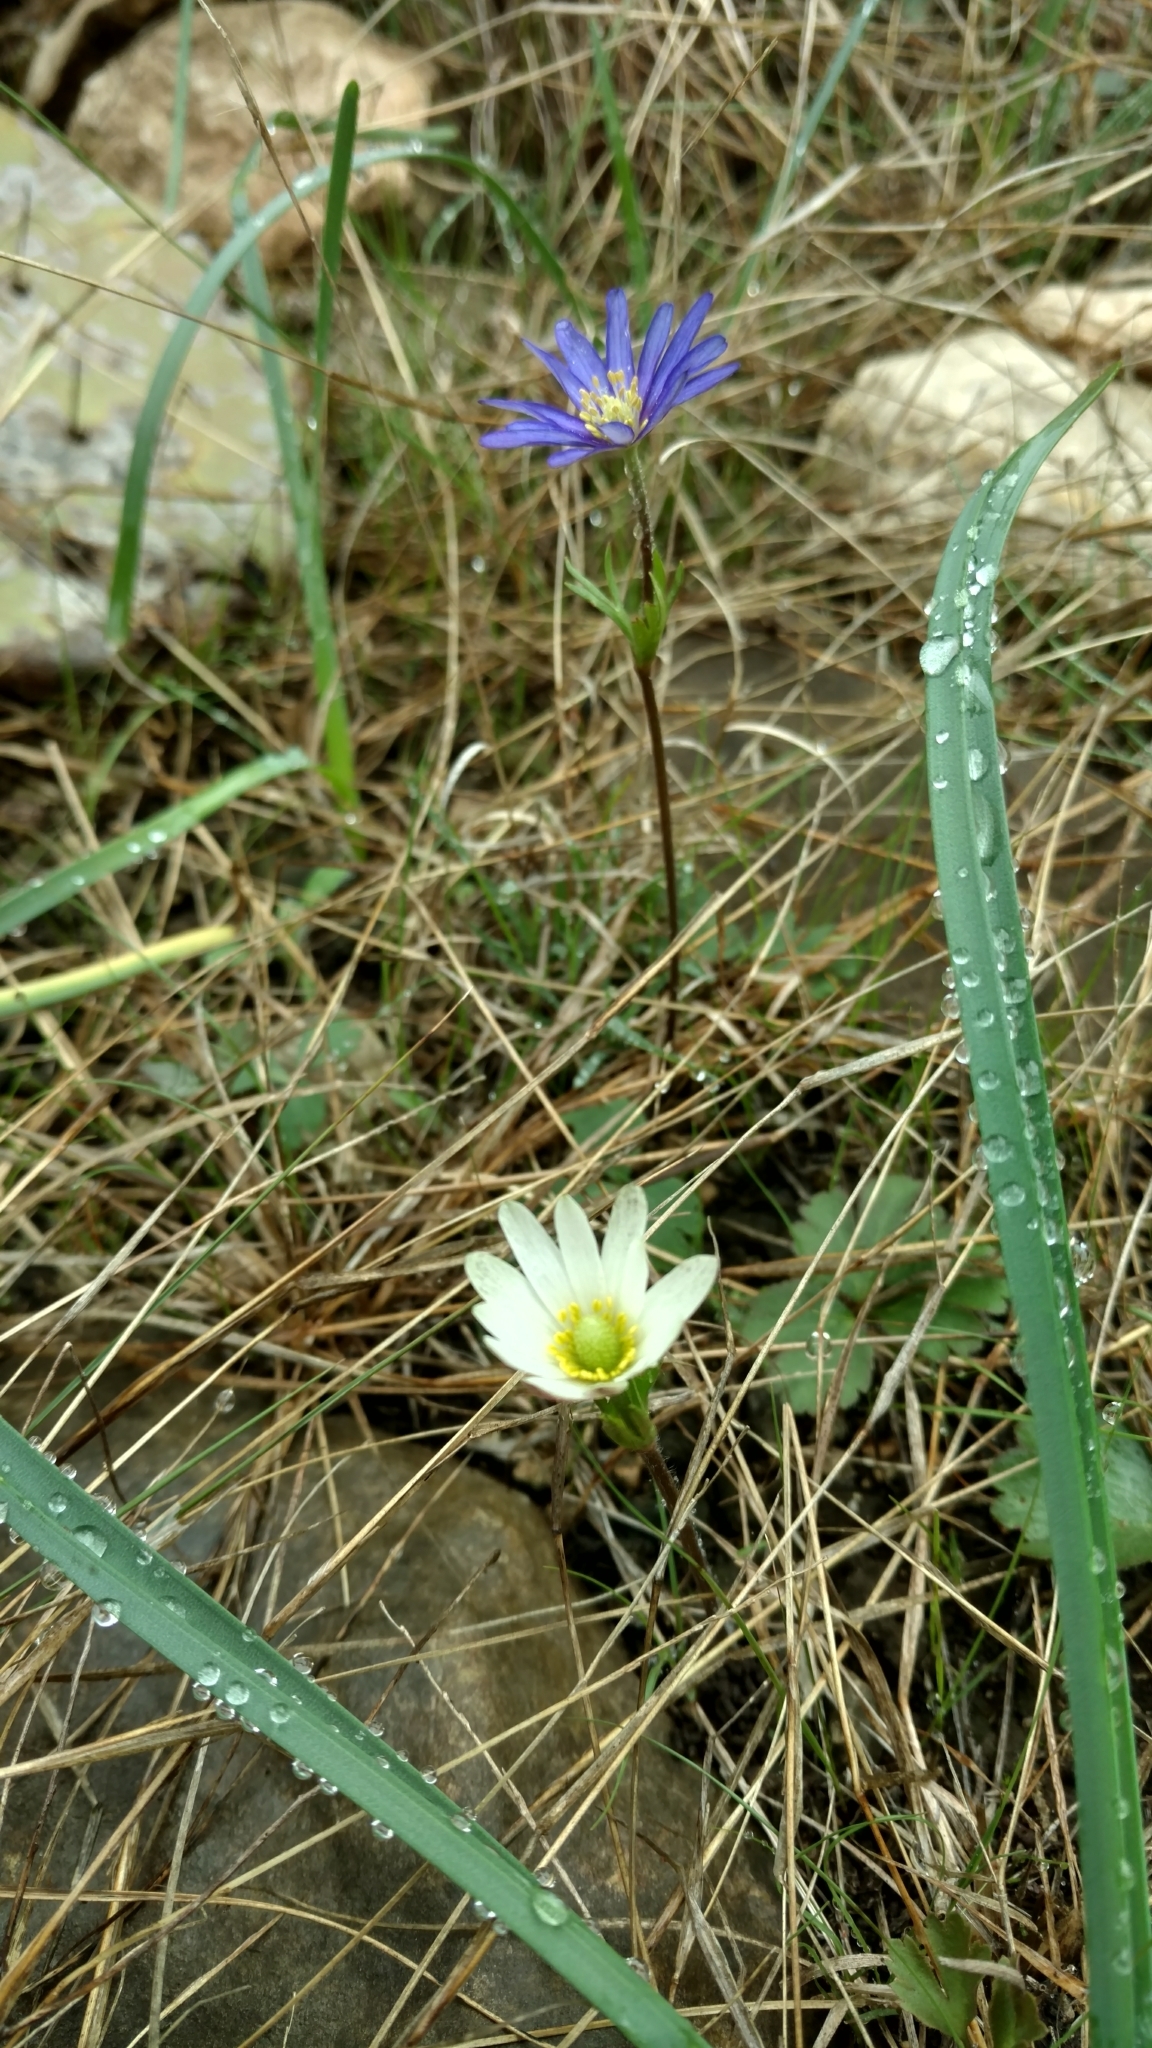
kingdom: Plantae
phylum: Tracheophyta
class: Magnoliopsida
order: Ranunculales
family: Ranunculaceae
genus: Anemone
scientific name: Anemone berlandieri
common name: Ten-petal anemone
